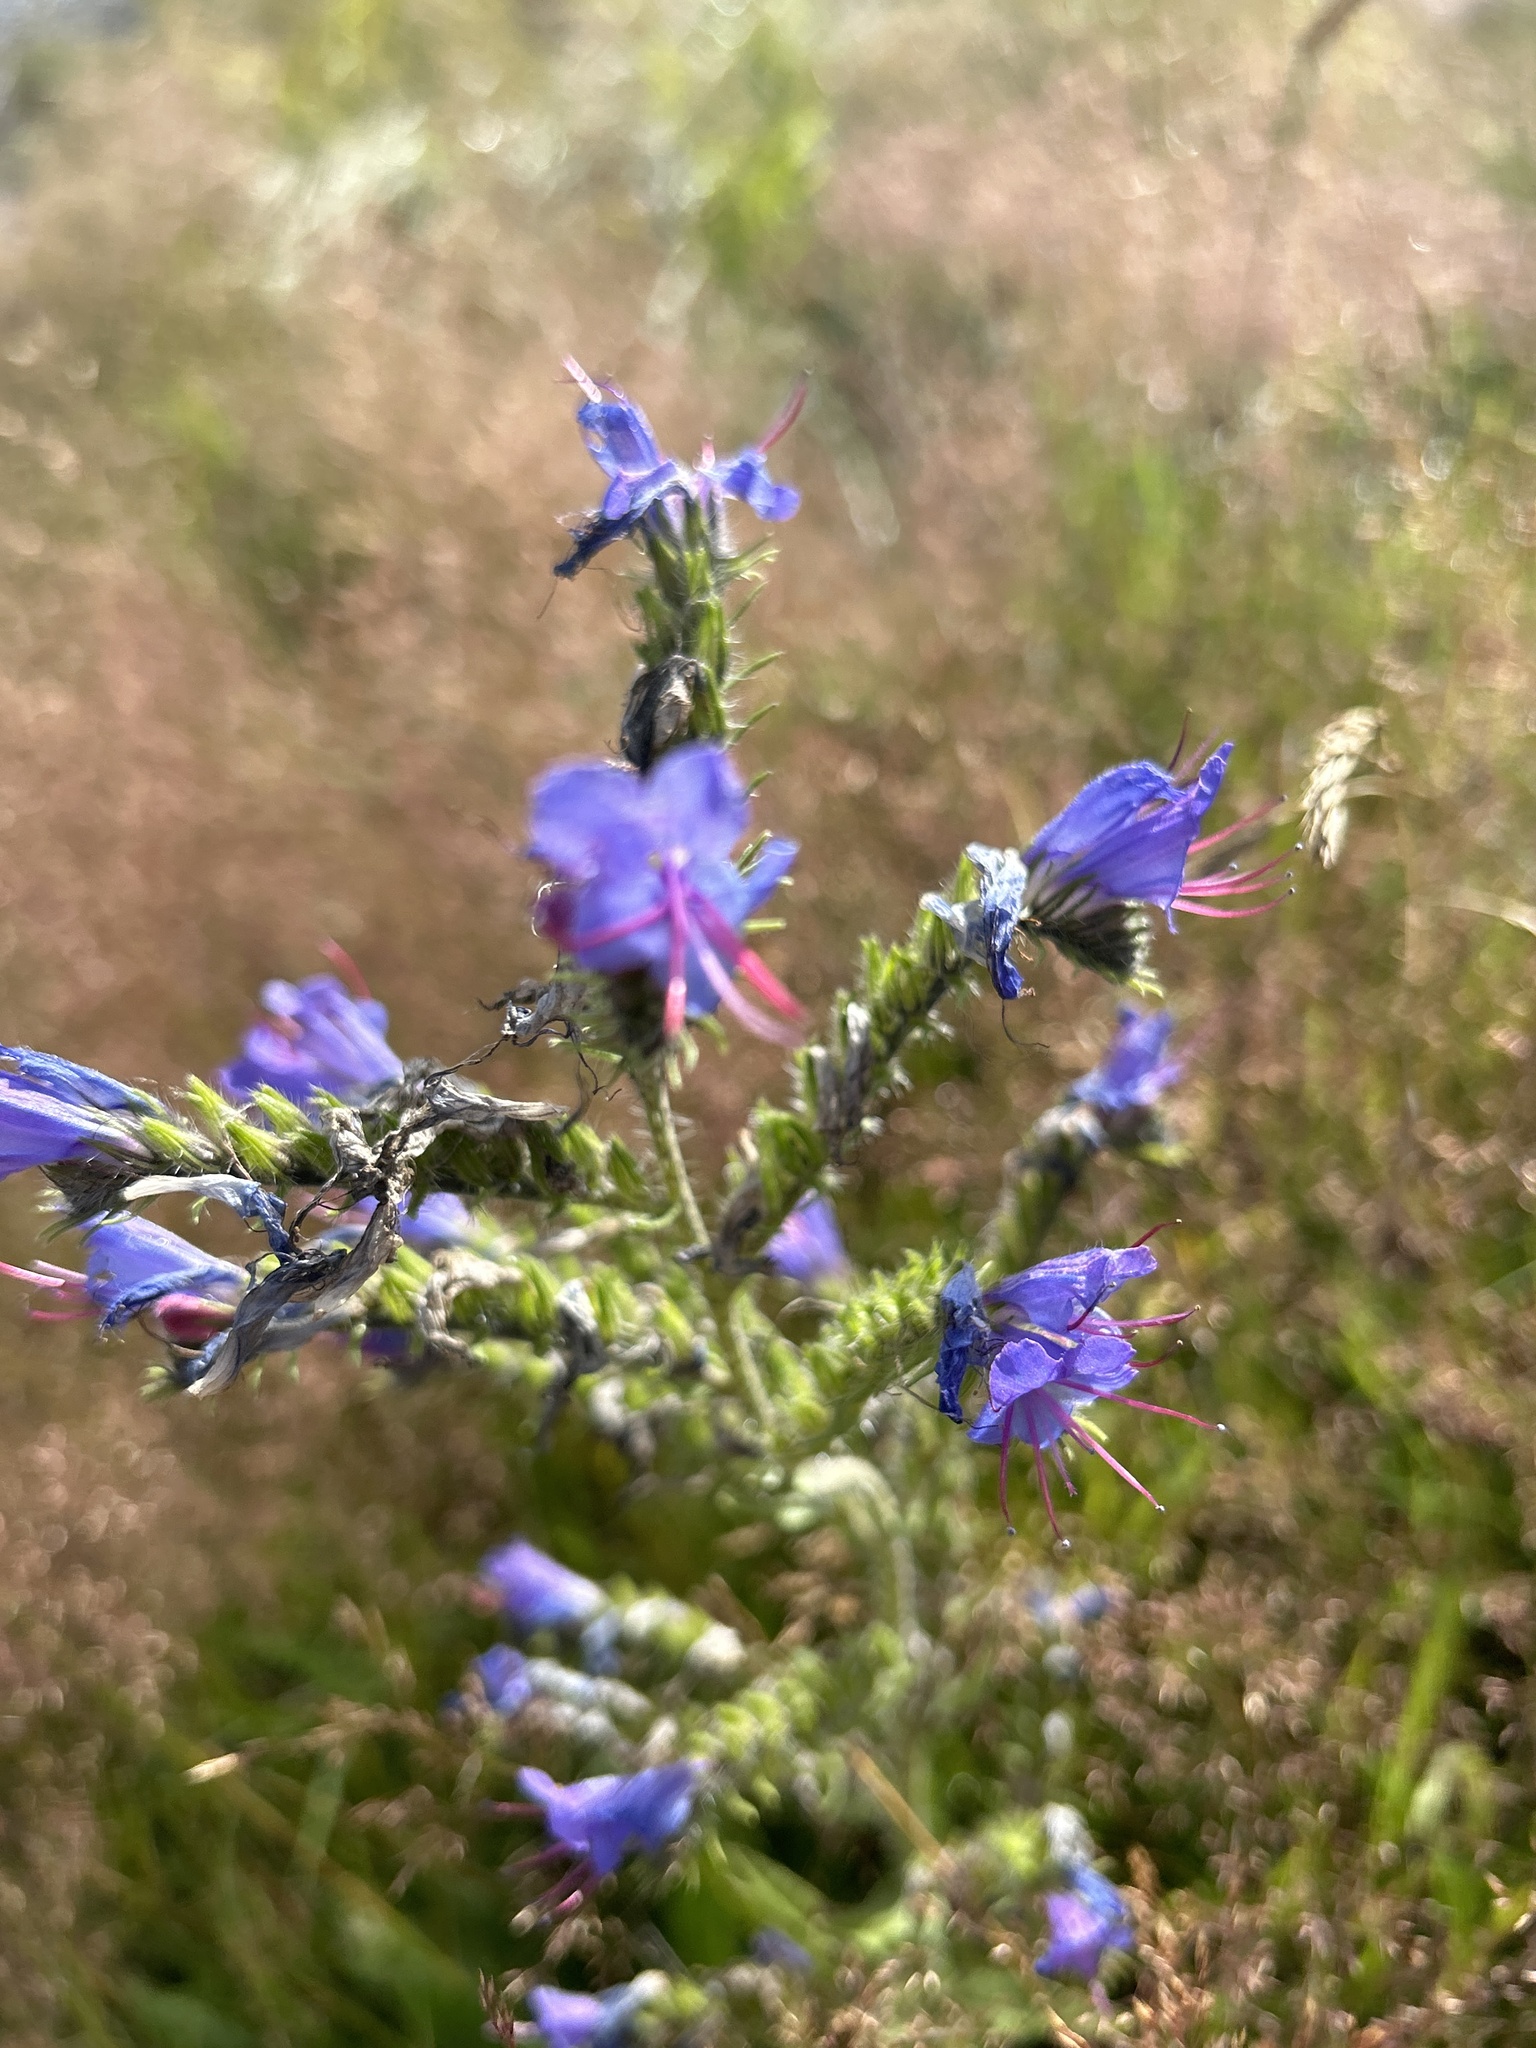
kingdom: Plantae
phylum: Tracheophyta
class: Magnoliopsida
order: Boraginales
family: Boraginaceae
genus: Echium
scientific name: Echium vulgare
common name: Common viper's bugloss
